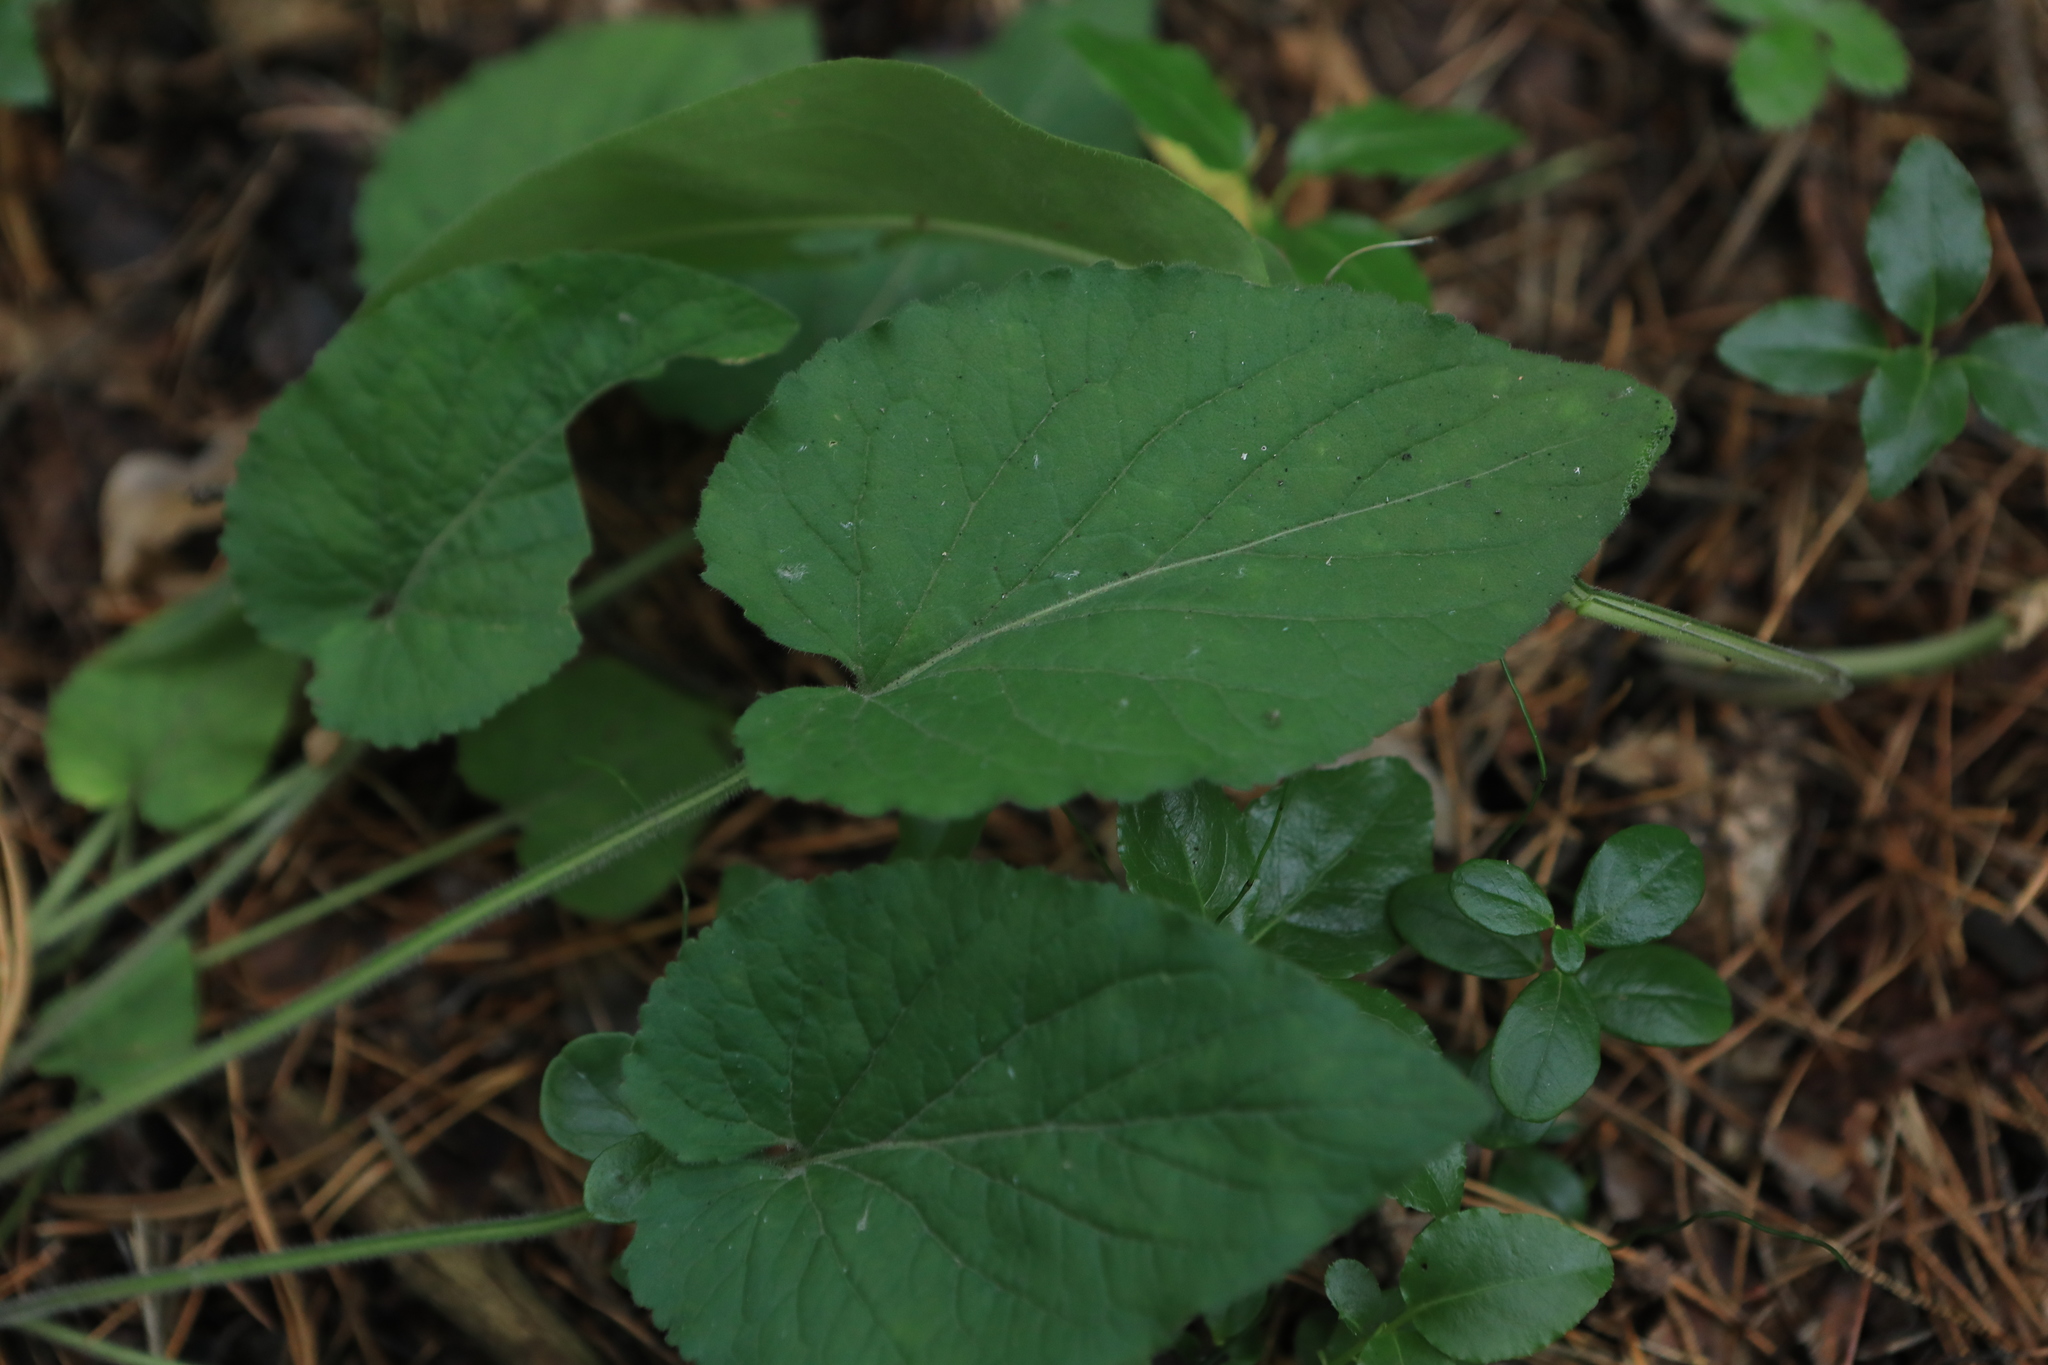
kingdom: Plantae
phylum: Tracheophyta
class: Magnoliopsida
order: Malpighiales
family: Violaceae
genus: Viola
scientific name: Viola hirta
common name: Hairy violet
